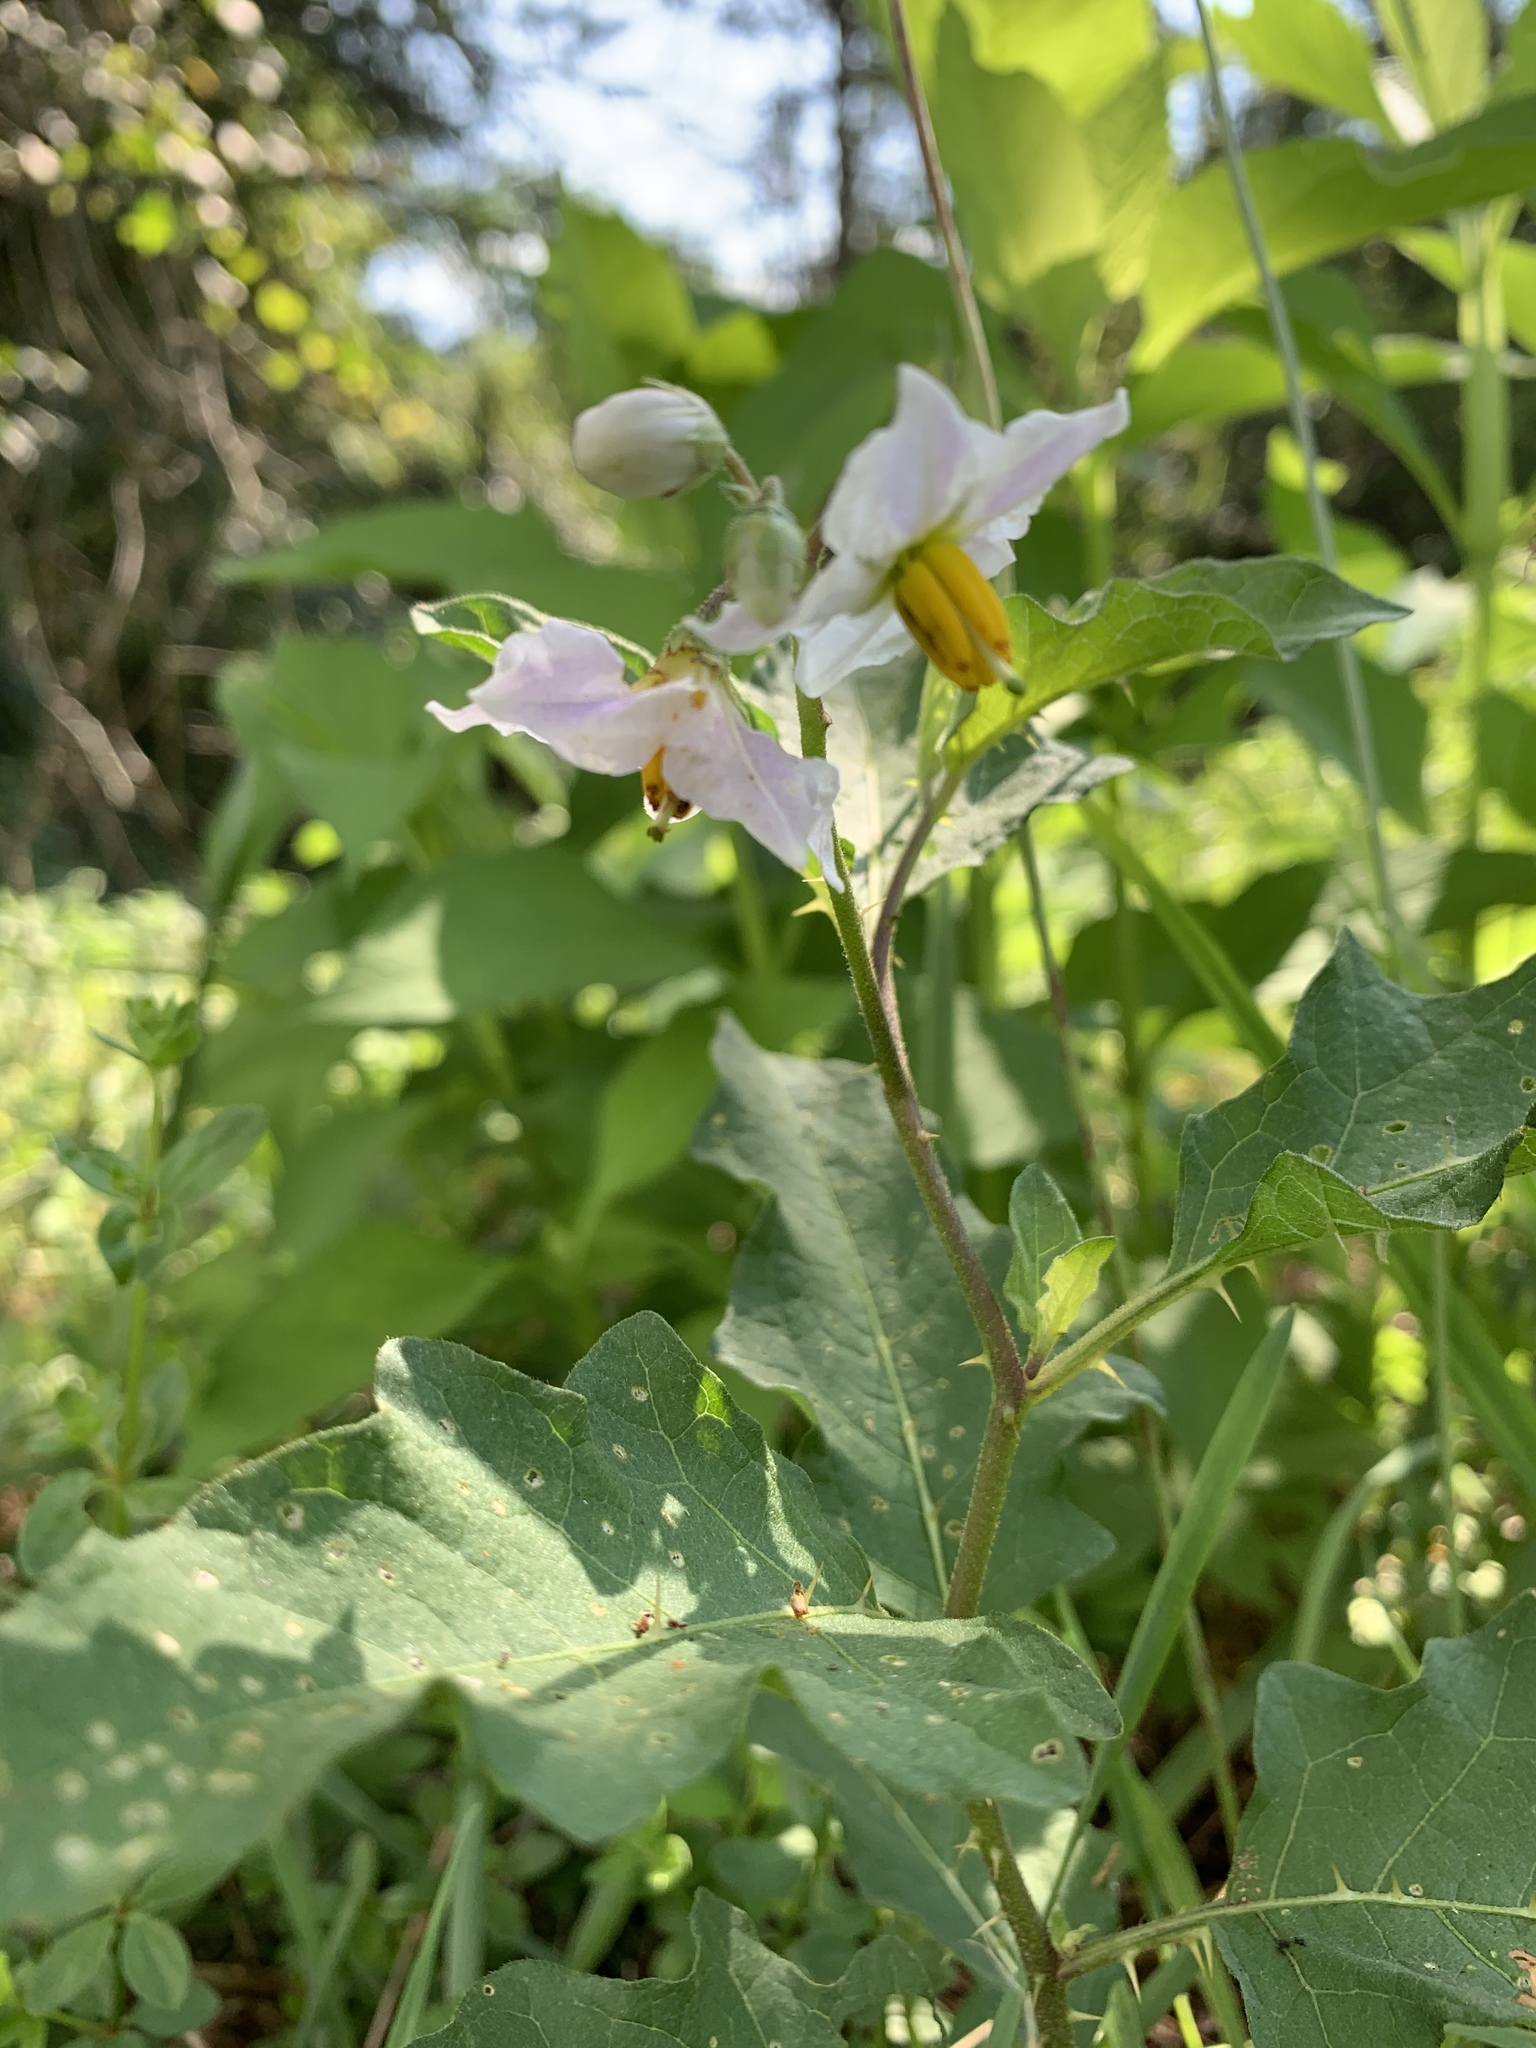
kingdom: Plantae
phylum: Tracheophyta
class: Magnoliopsida
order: Solanales
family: Solanaceae
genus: Solanum
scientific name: Solanum carolinense
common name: Horse-nettle
